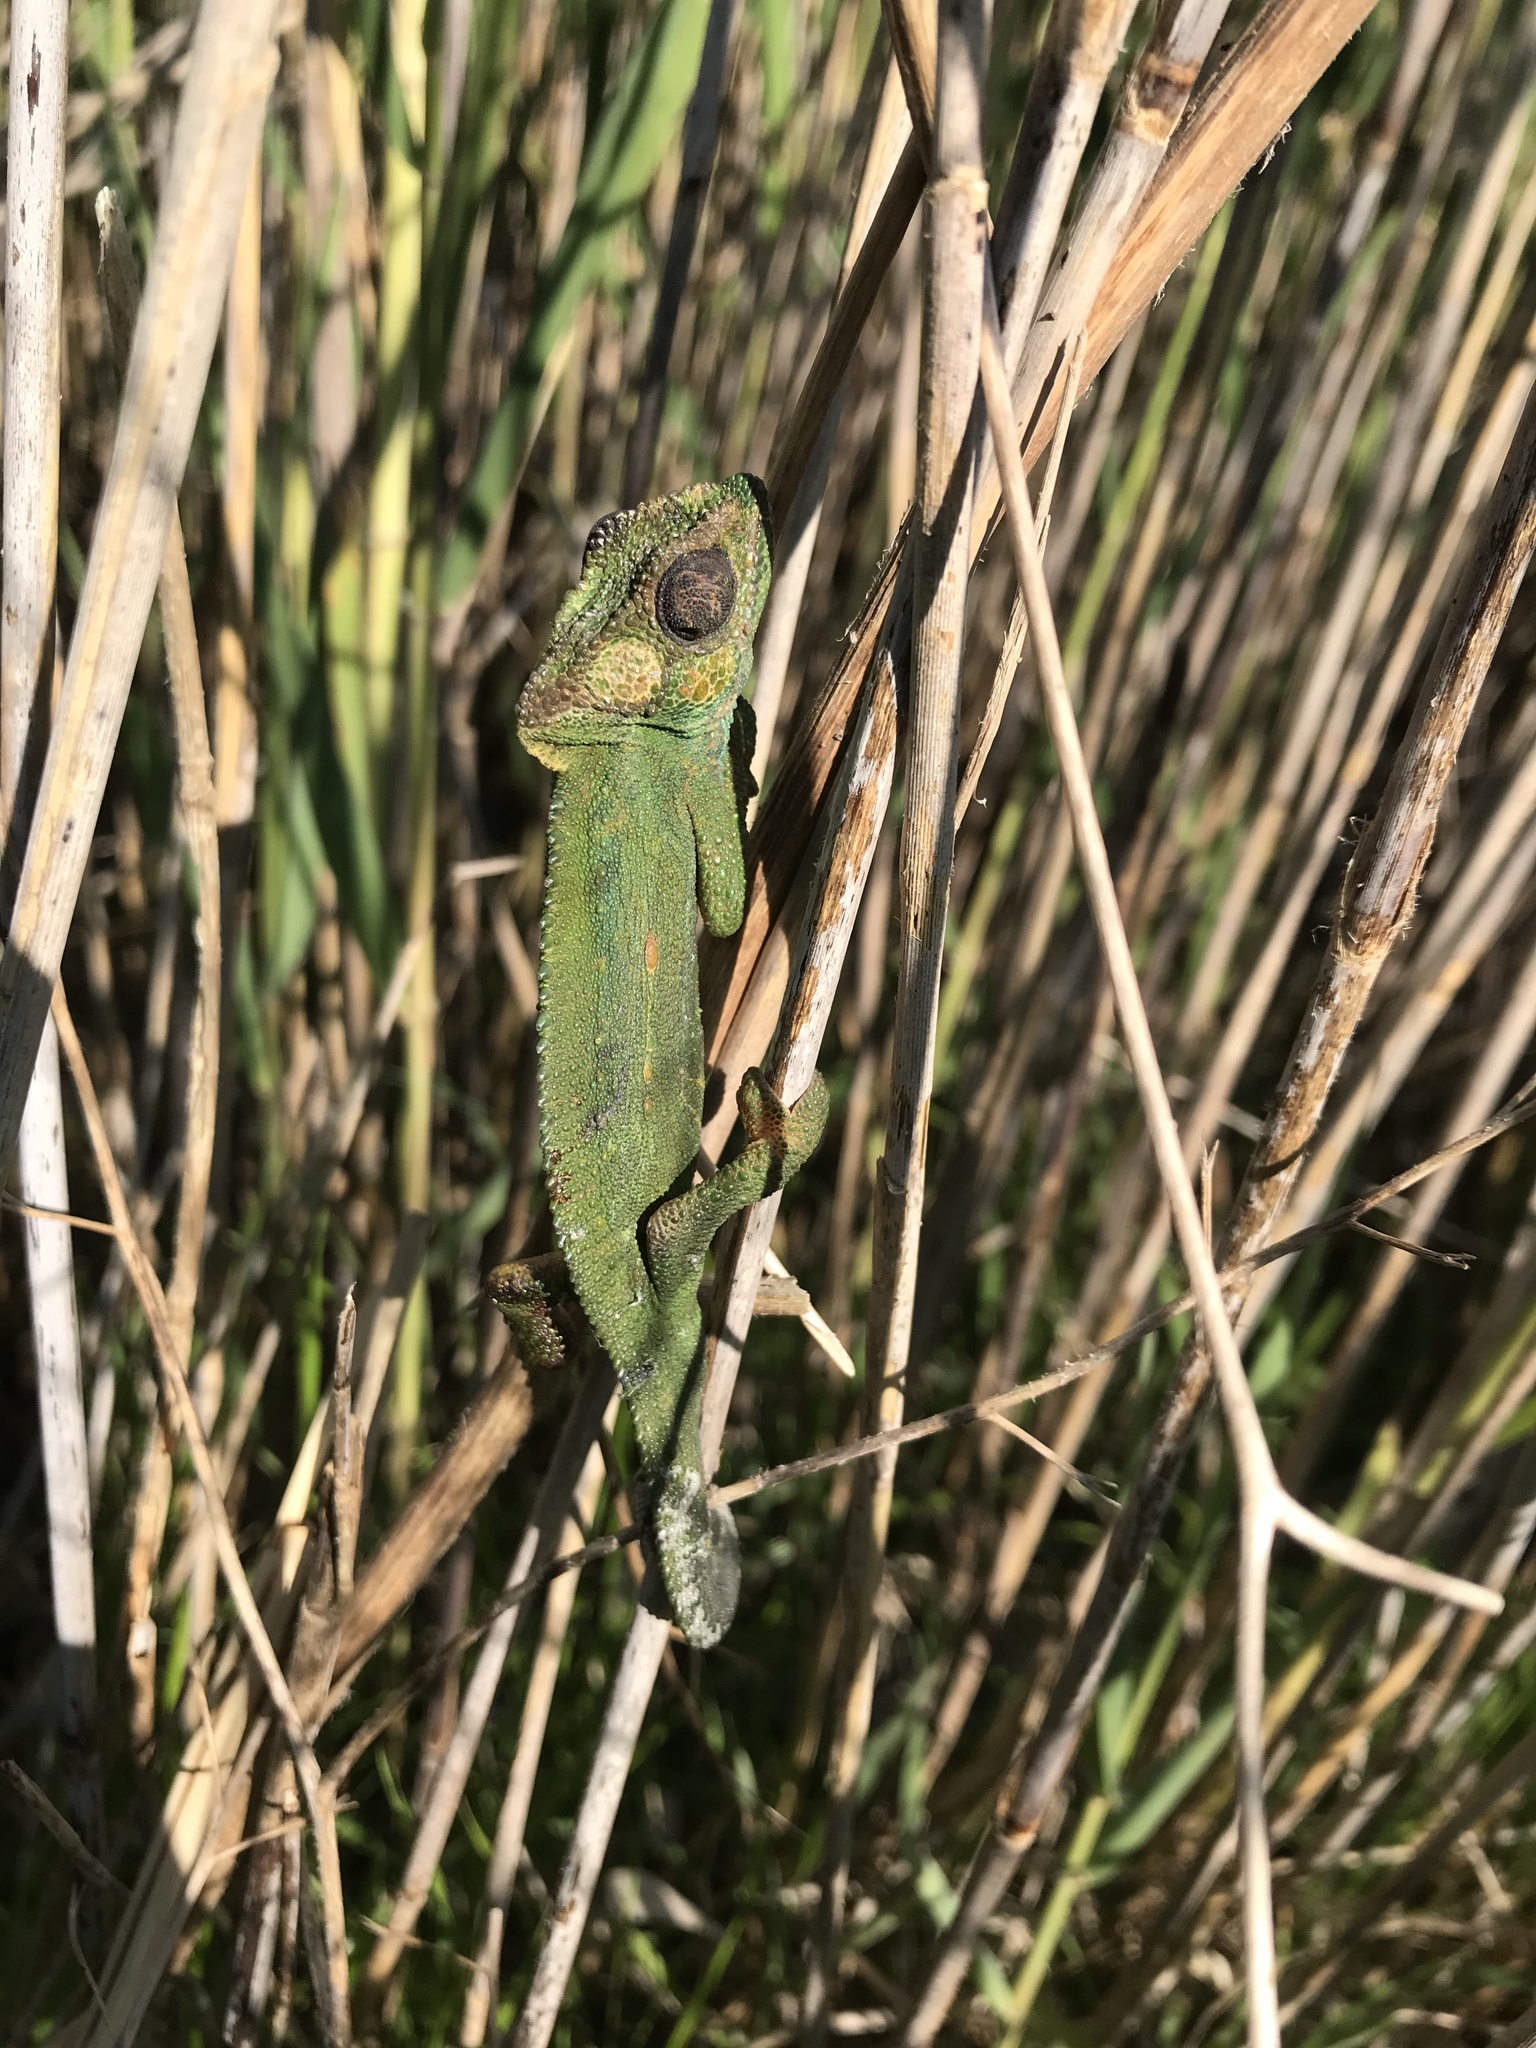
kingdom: Animalia
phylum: Chordata
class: Squamata
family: Chamaeleonidae
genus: Bradypodion
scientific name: Bradypodion pumilum
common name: Cape dwarf chameleon
